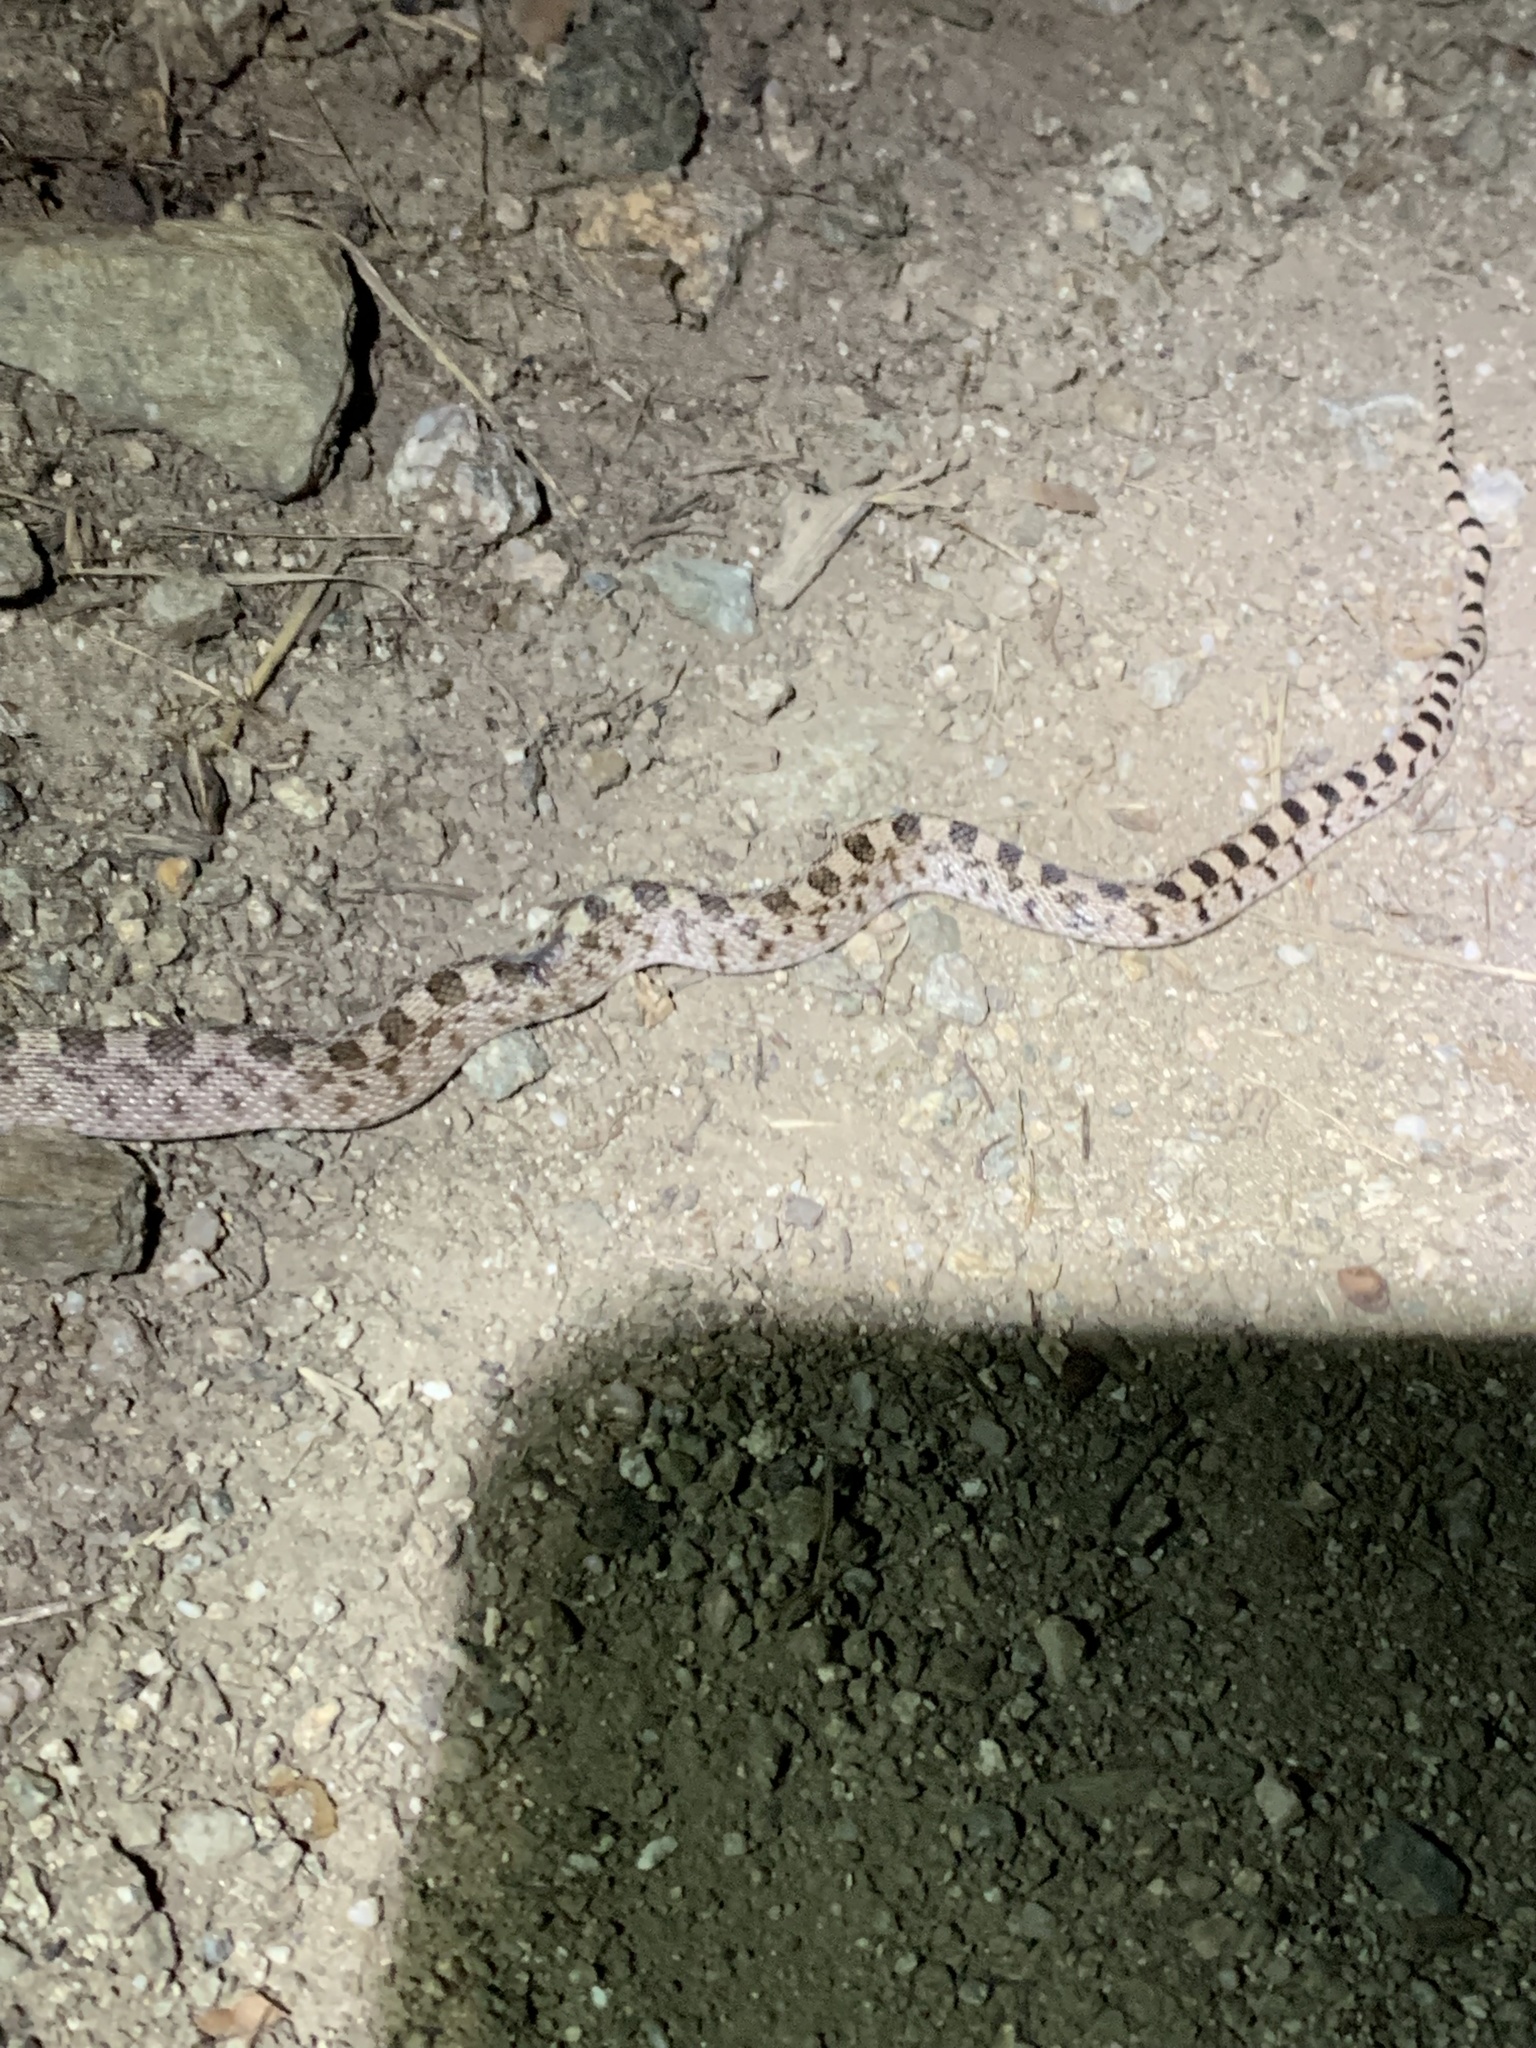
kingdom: Animalia
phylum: Chordata
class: Squamata
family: Colubridae
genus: Pituophis
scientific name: Pituophis catenifer
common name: Gopher snake
